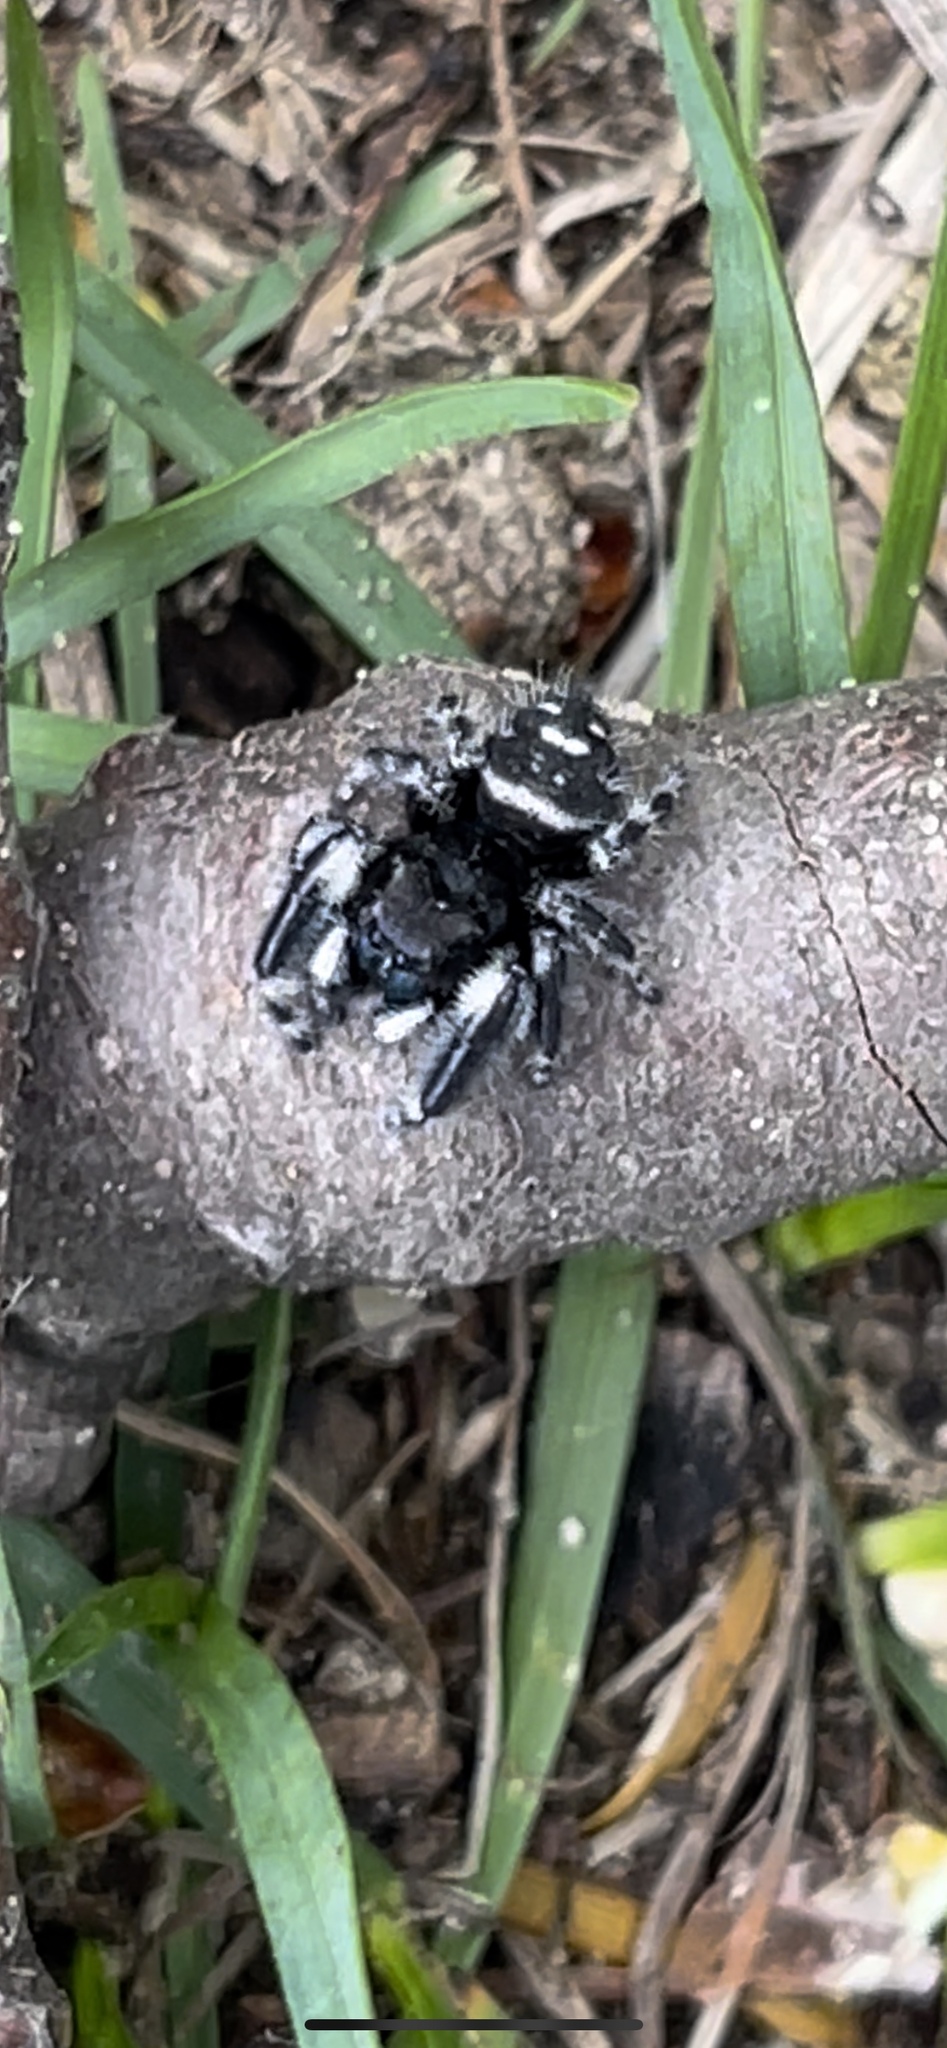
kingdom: Animalia
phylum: Arthropoda
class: Arachnida
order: Araneae
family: Salticidae
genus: Phidippus
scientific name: Phidippus audax
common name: Bold jumper
